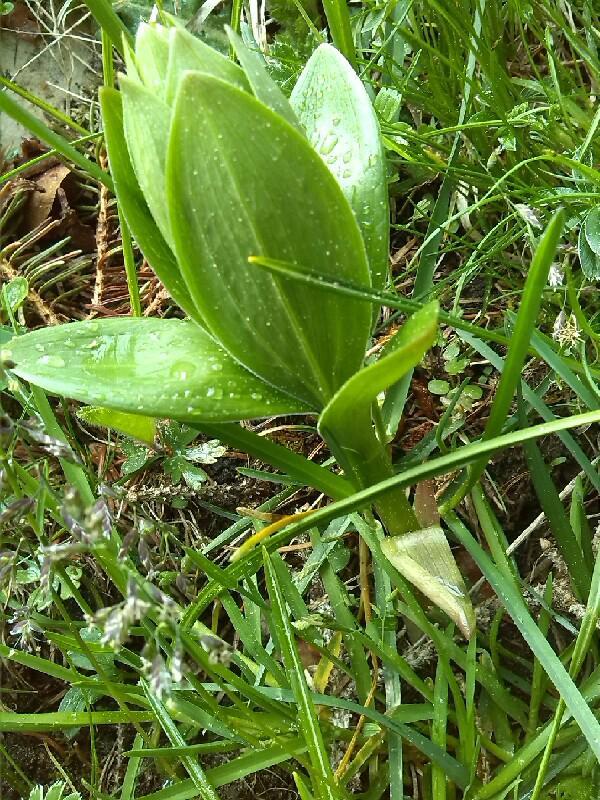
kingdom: Plantae
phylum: Tracheophyta
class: Liliopsida
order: Liliales
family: Liliaceae
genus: Lilium
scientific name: Lilium martagon
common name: Martagon lily
